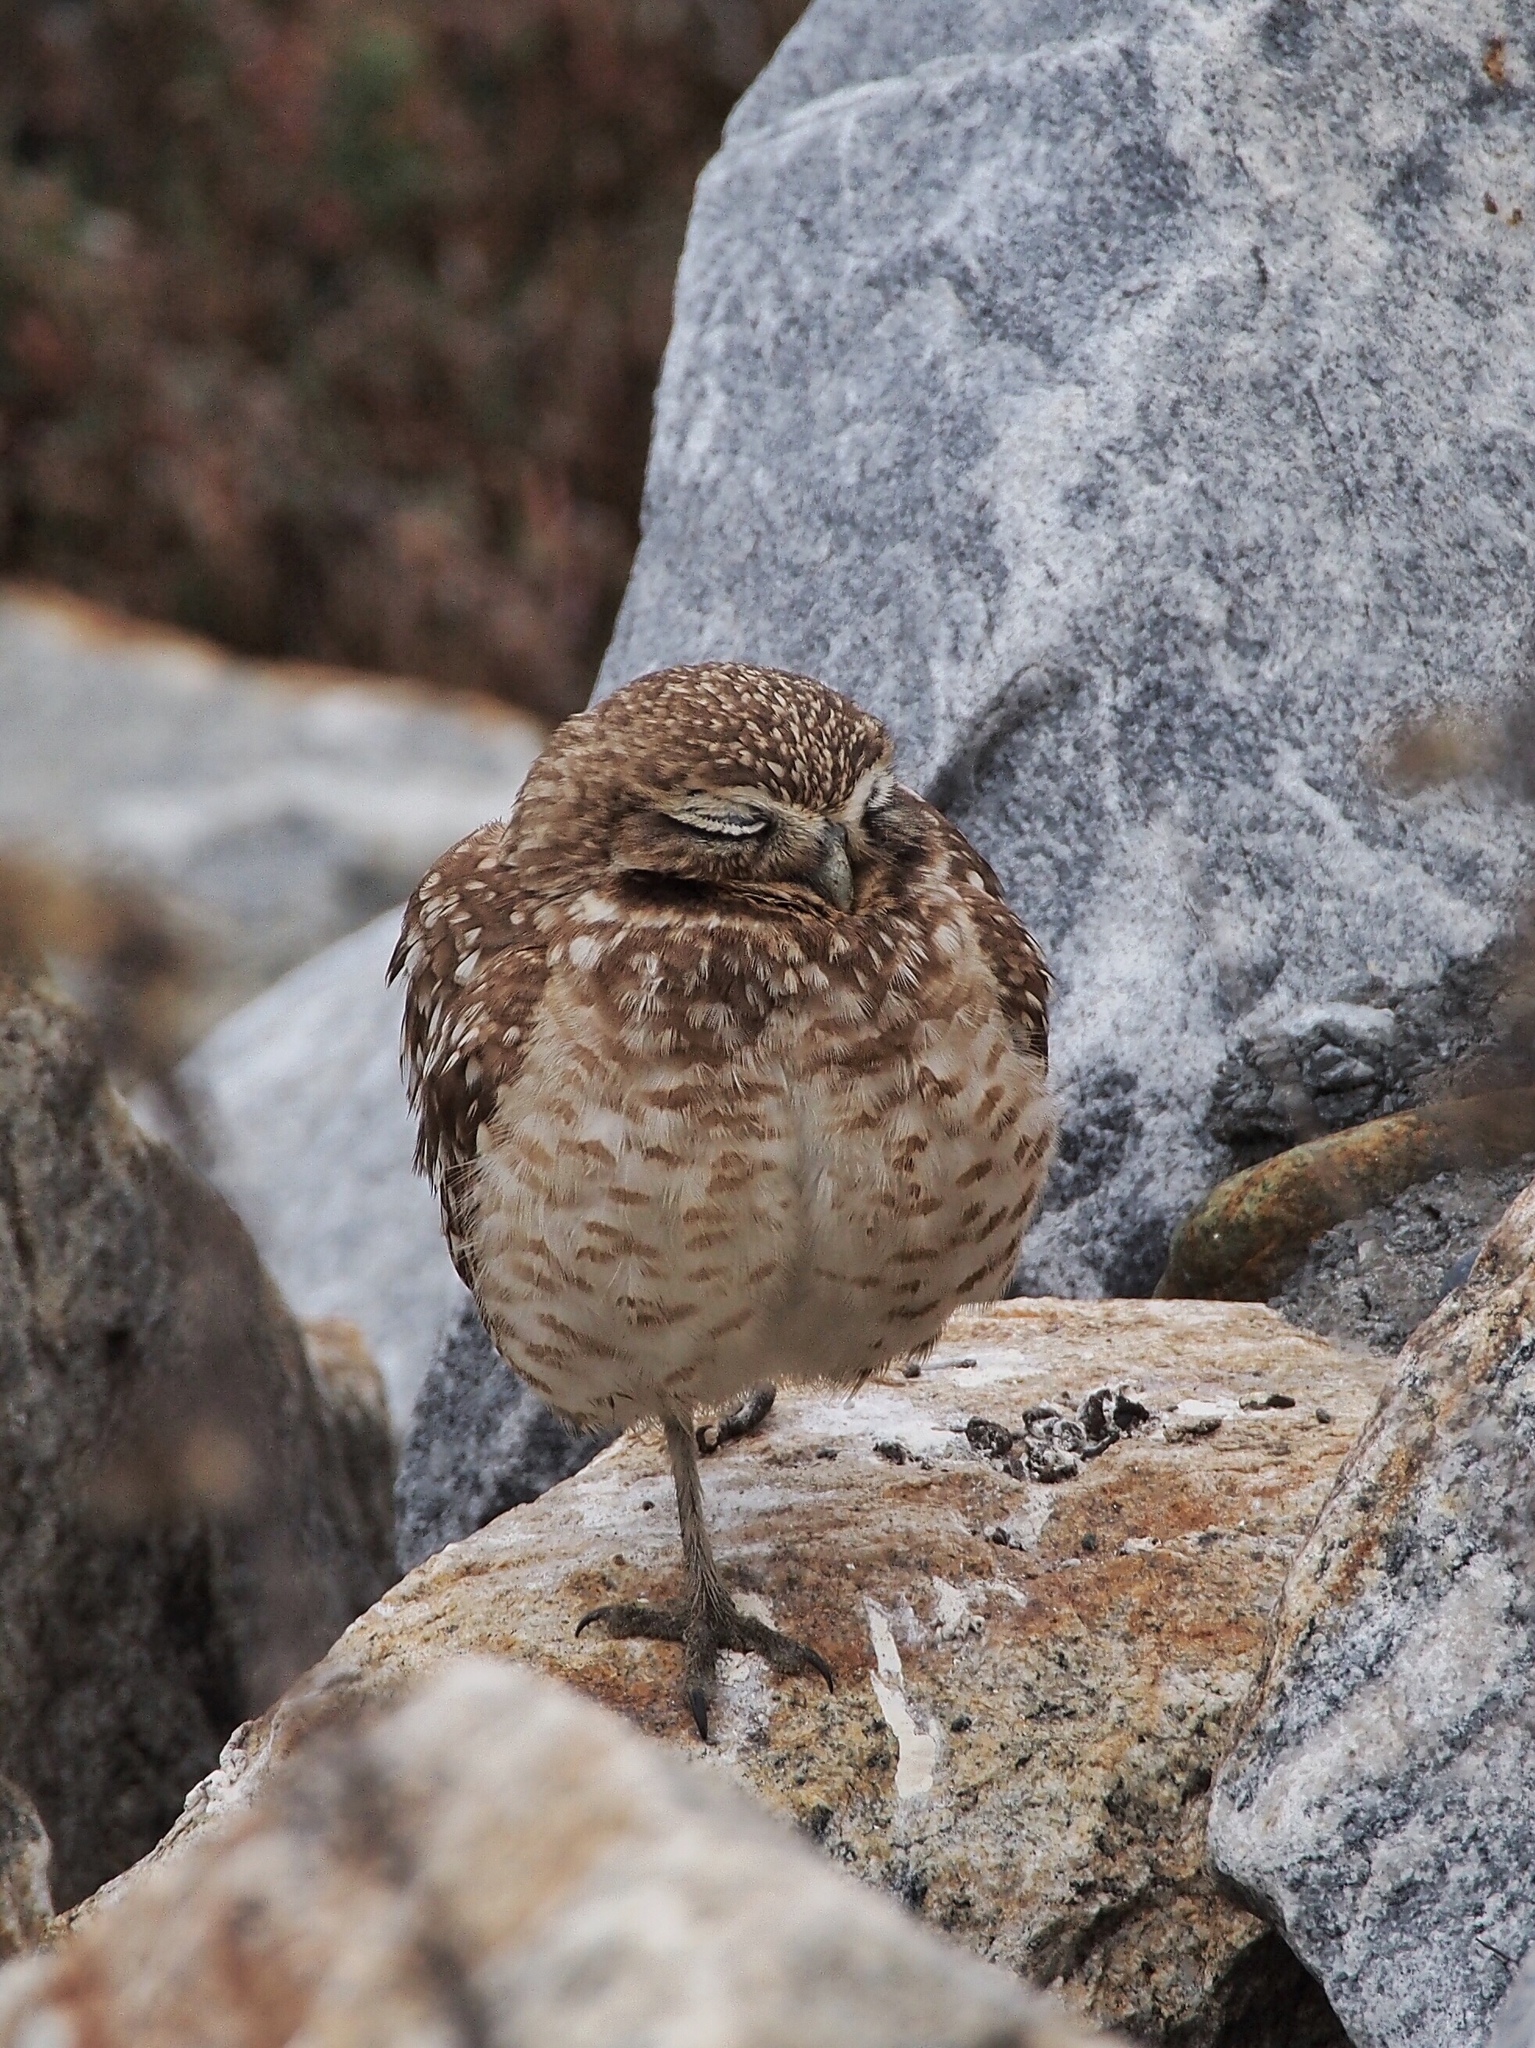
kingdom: Animalia
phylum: Chordata
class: Aves
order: Strigiformes
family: Strigidae
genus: Athene
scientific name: Athene cunicularia
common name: Burrowing owl
